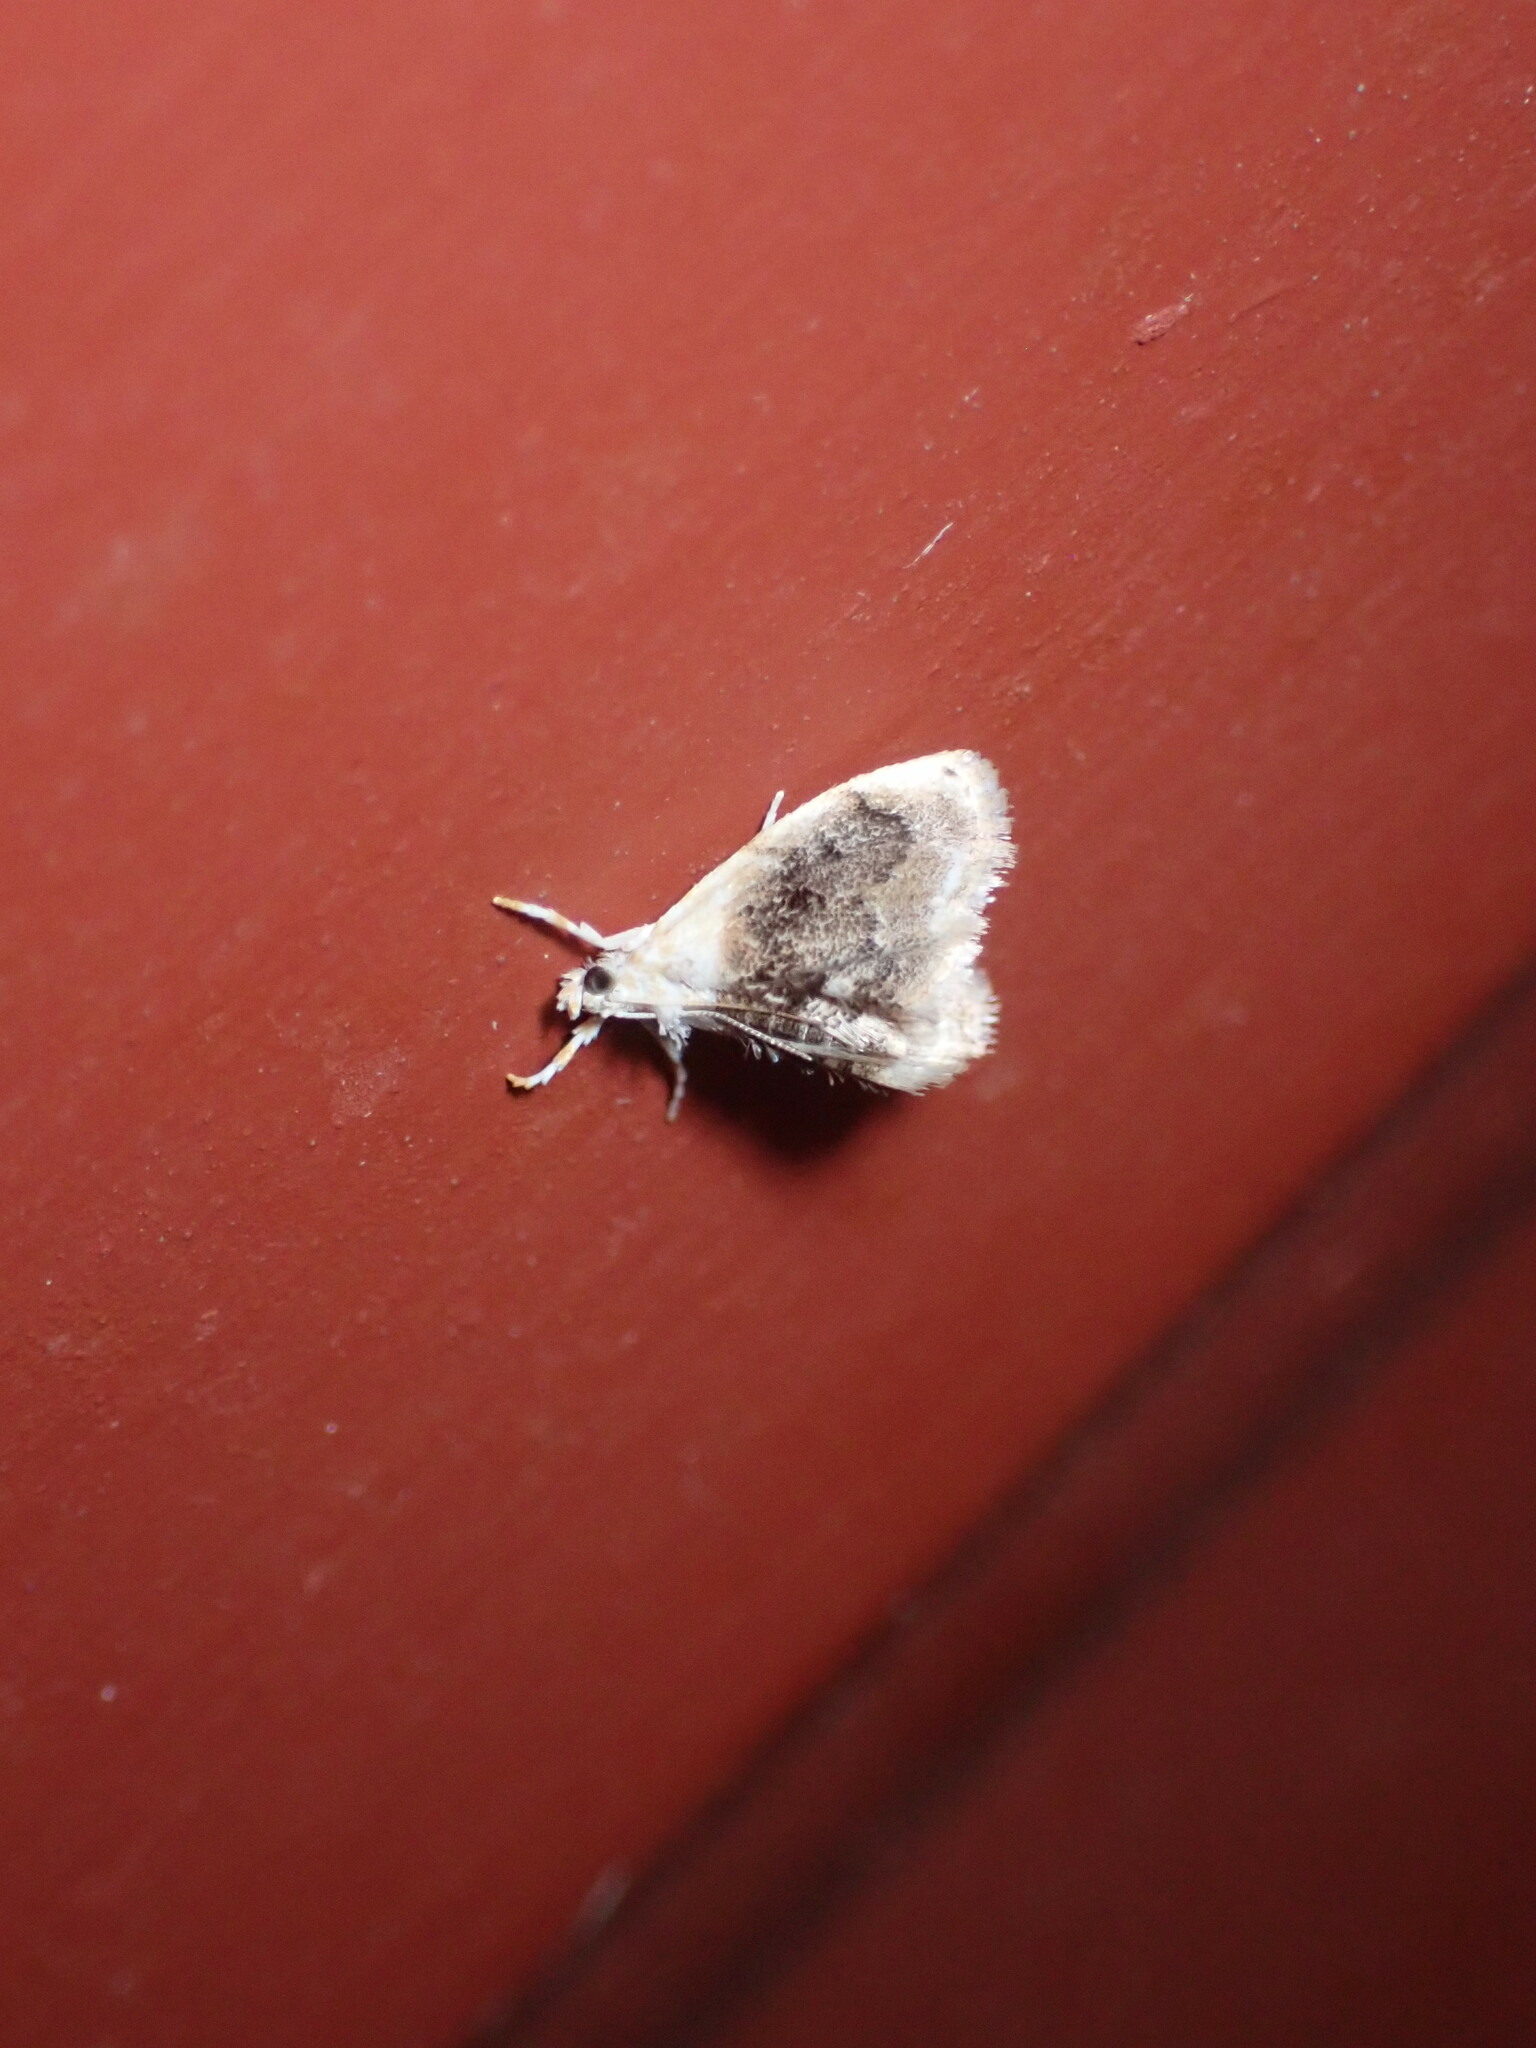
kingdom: Animalia
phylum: Arthropoda
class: Insecta
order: Lepidoptera
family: Crambidae
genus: Lipocosmodes
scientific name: Lipocosmodes fuliginosalis
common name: Sooty lipocosmodes moth
